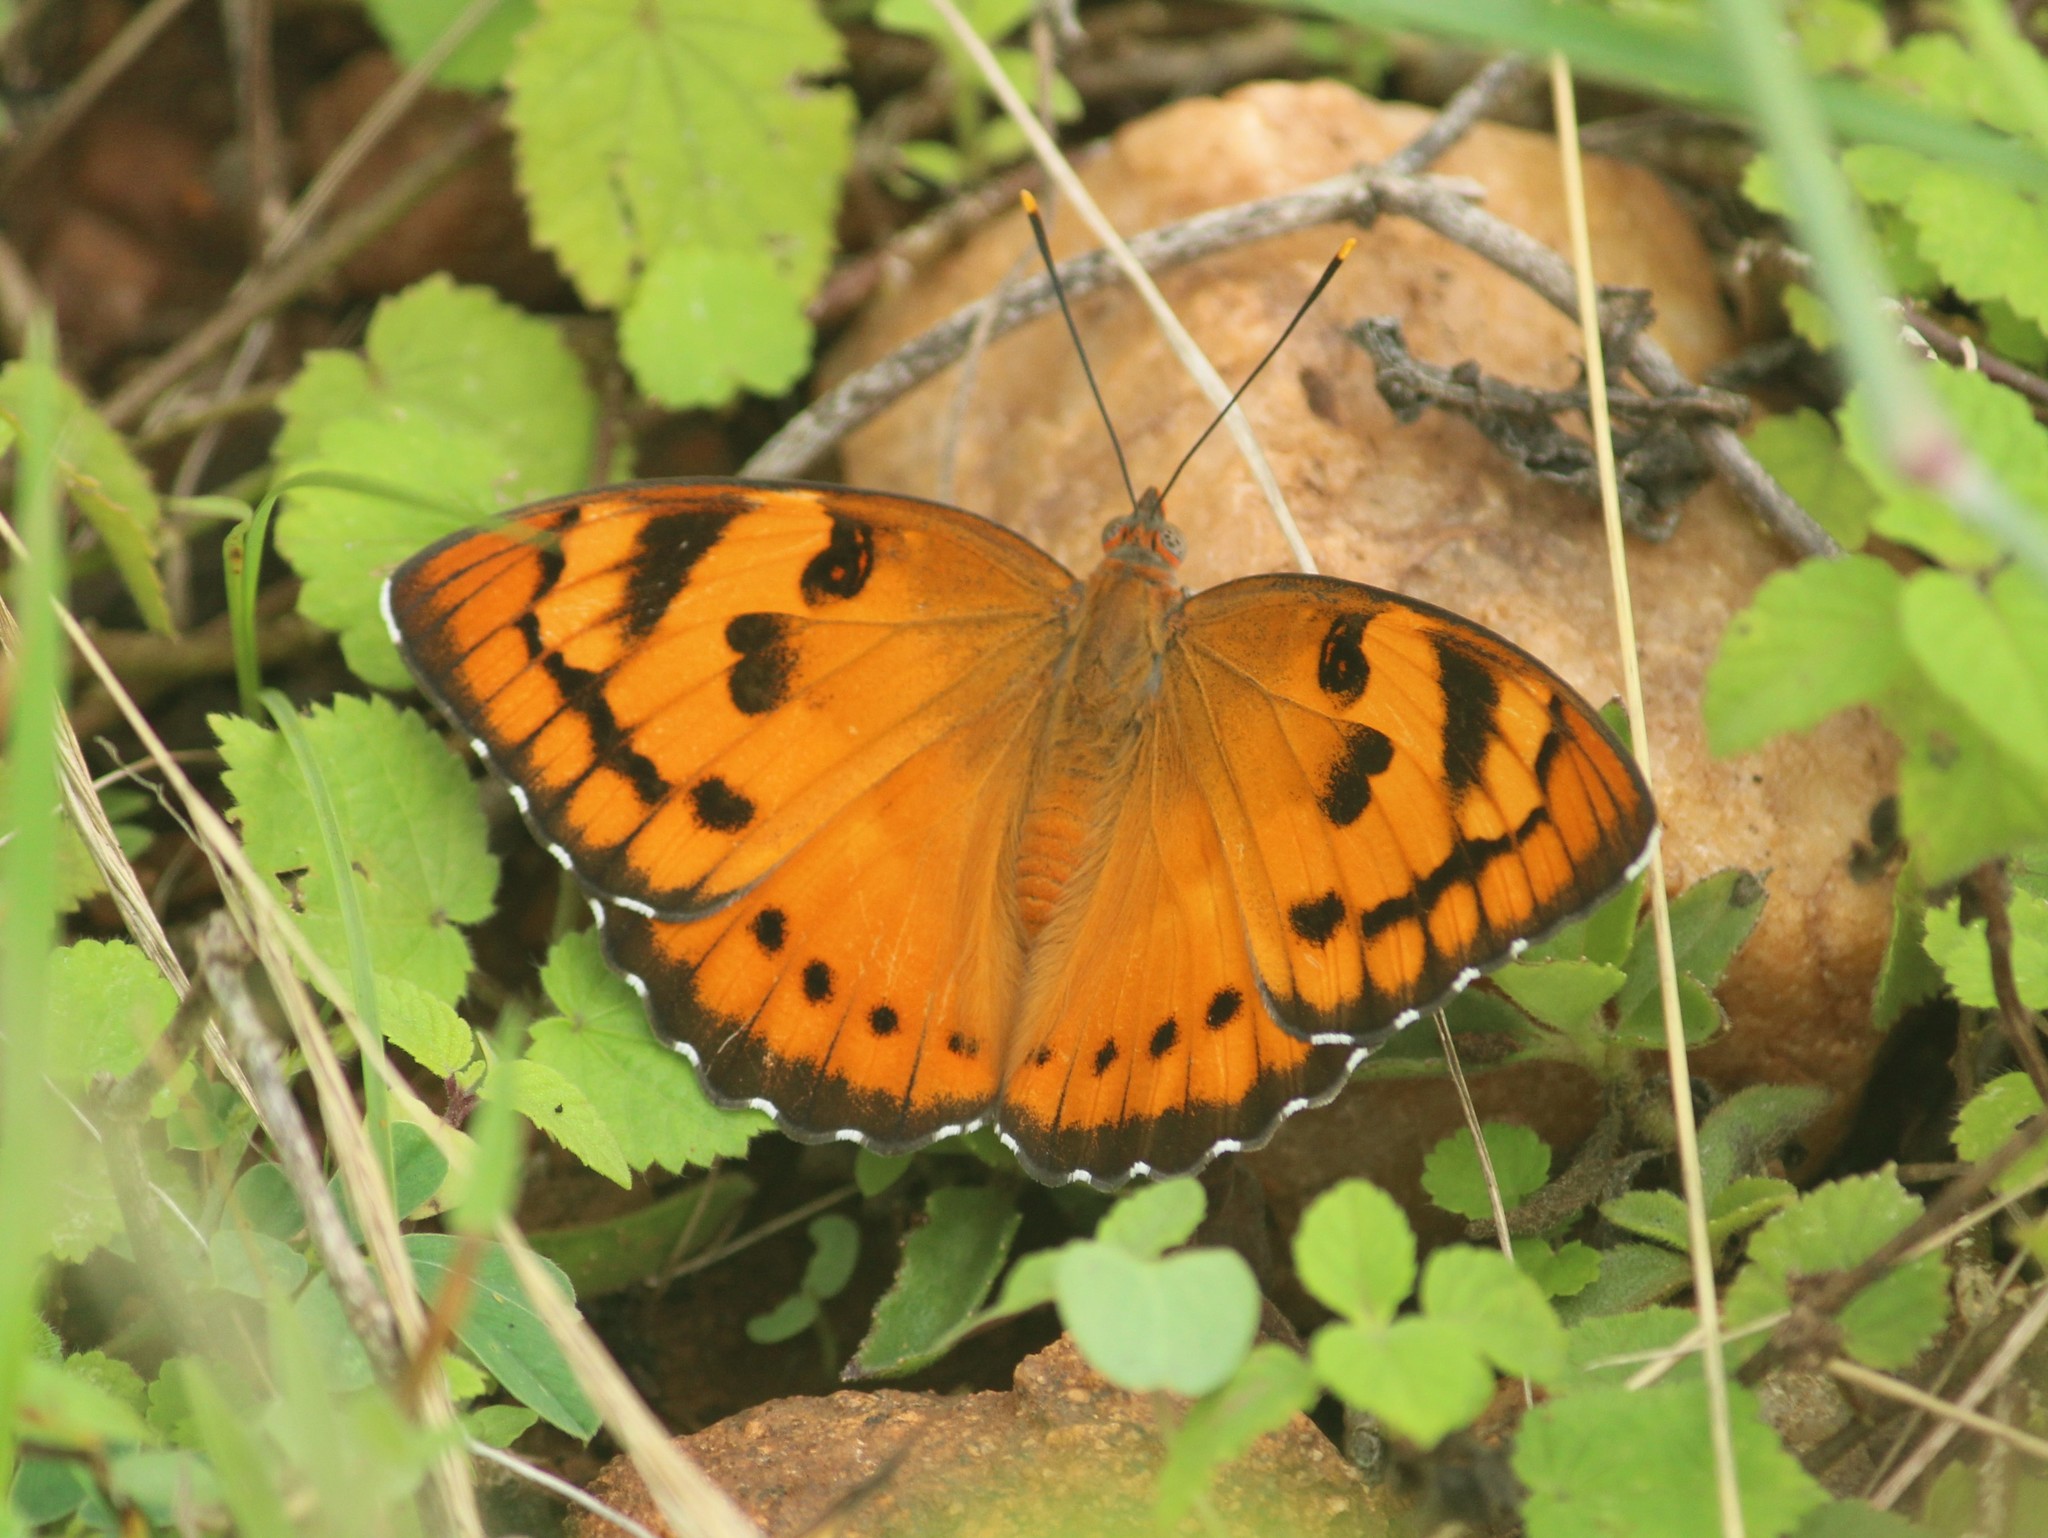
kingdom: Animalia
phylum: Arthropoda
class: Insecta
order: Lepidoptera
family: Nymphalidae
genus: Euthalia
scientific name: Euthalia nais
